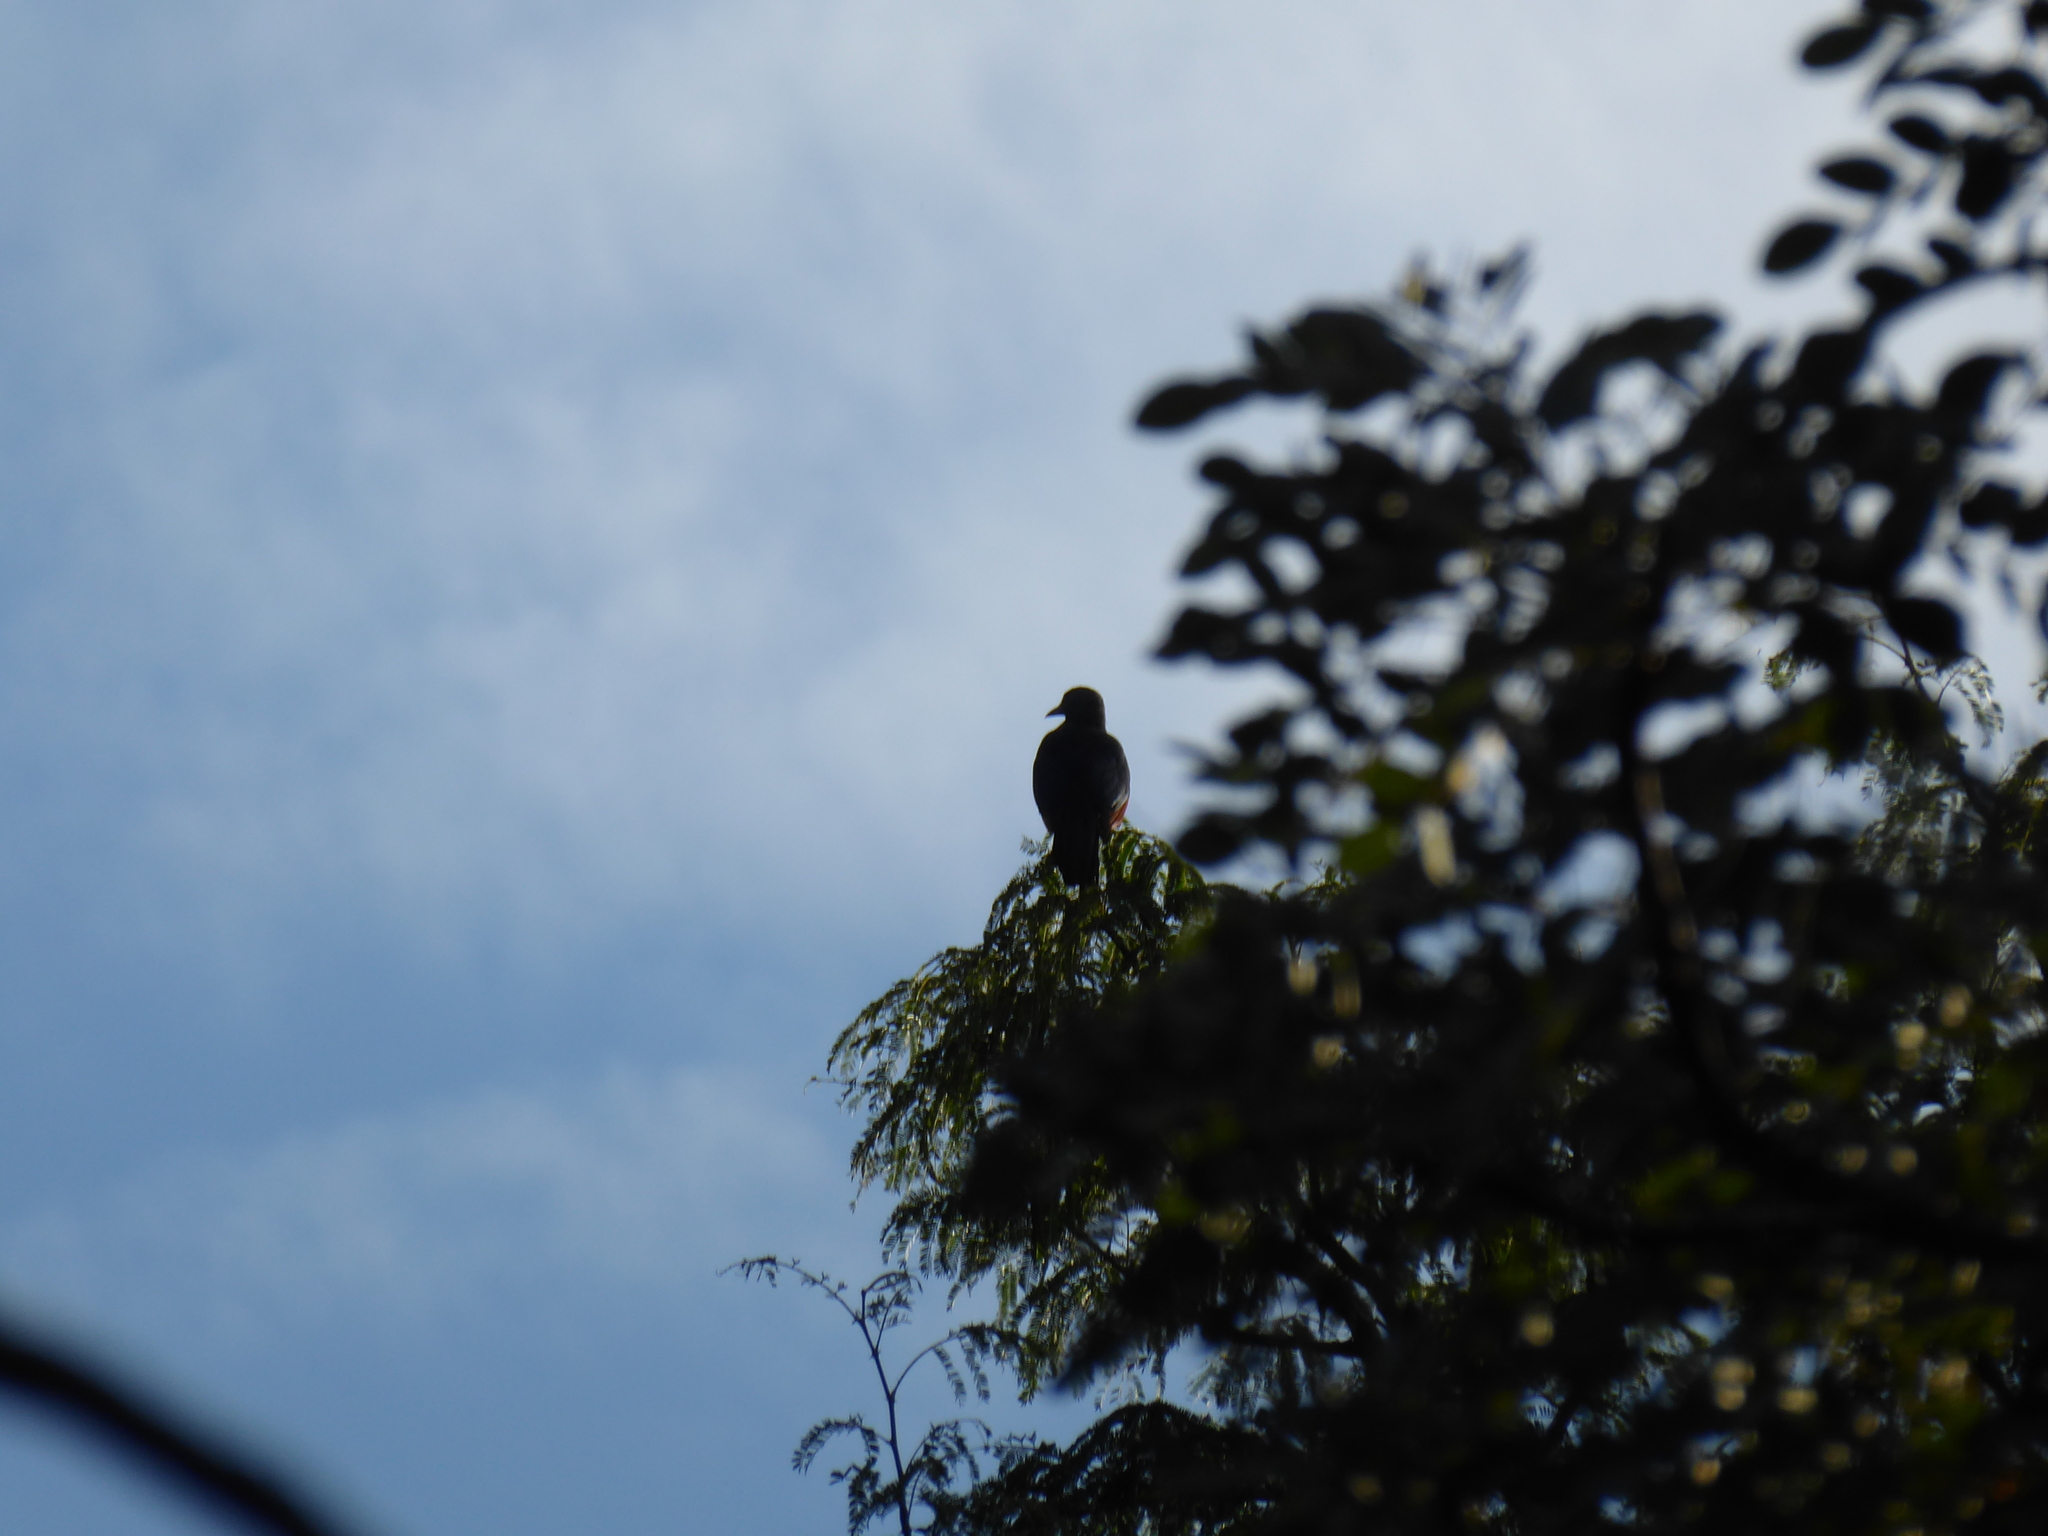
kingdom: Animalia
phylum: Chordata
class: Aves
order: Passeriformes
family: Sturnidae
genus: Onychognathus
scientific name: Onychognathus morio
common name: Red-winged starling
